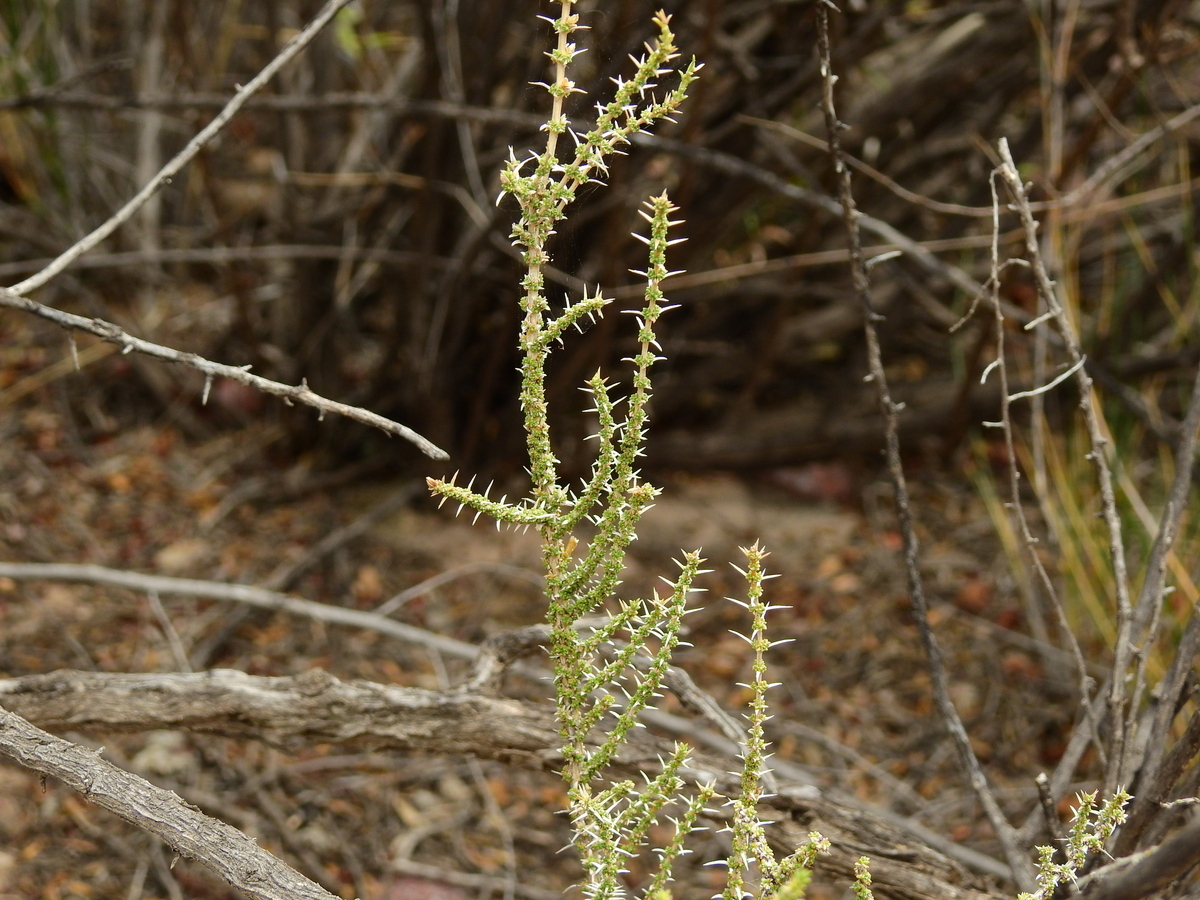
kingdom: Plantae
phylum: Tracheophyta
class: Magnoliopsida
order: Lamiales
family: Verbenaceae
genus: Junellia
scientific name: Junellia seriphioides
